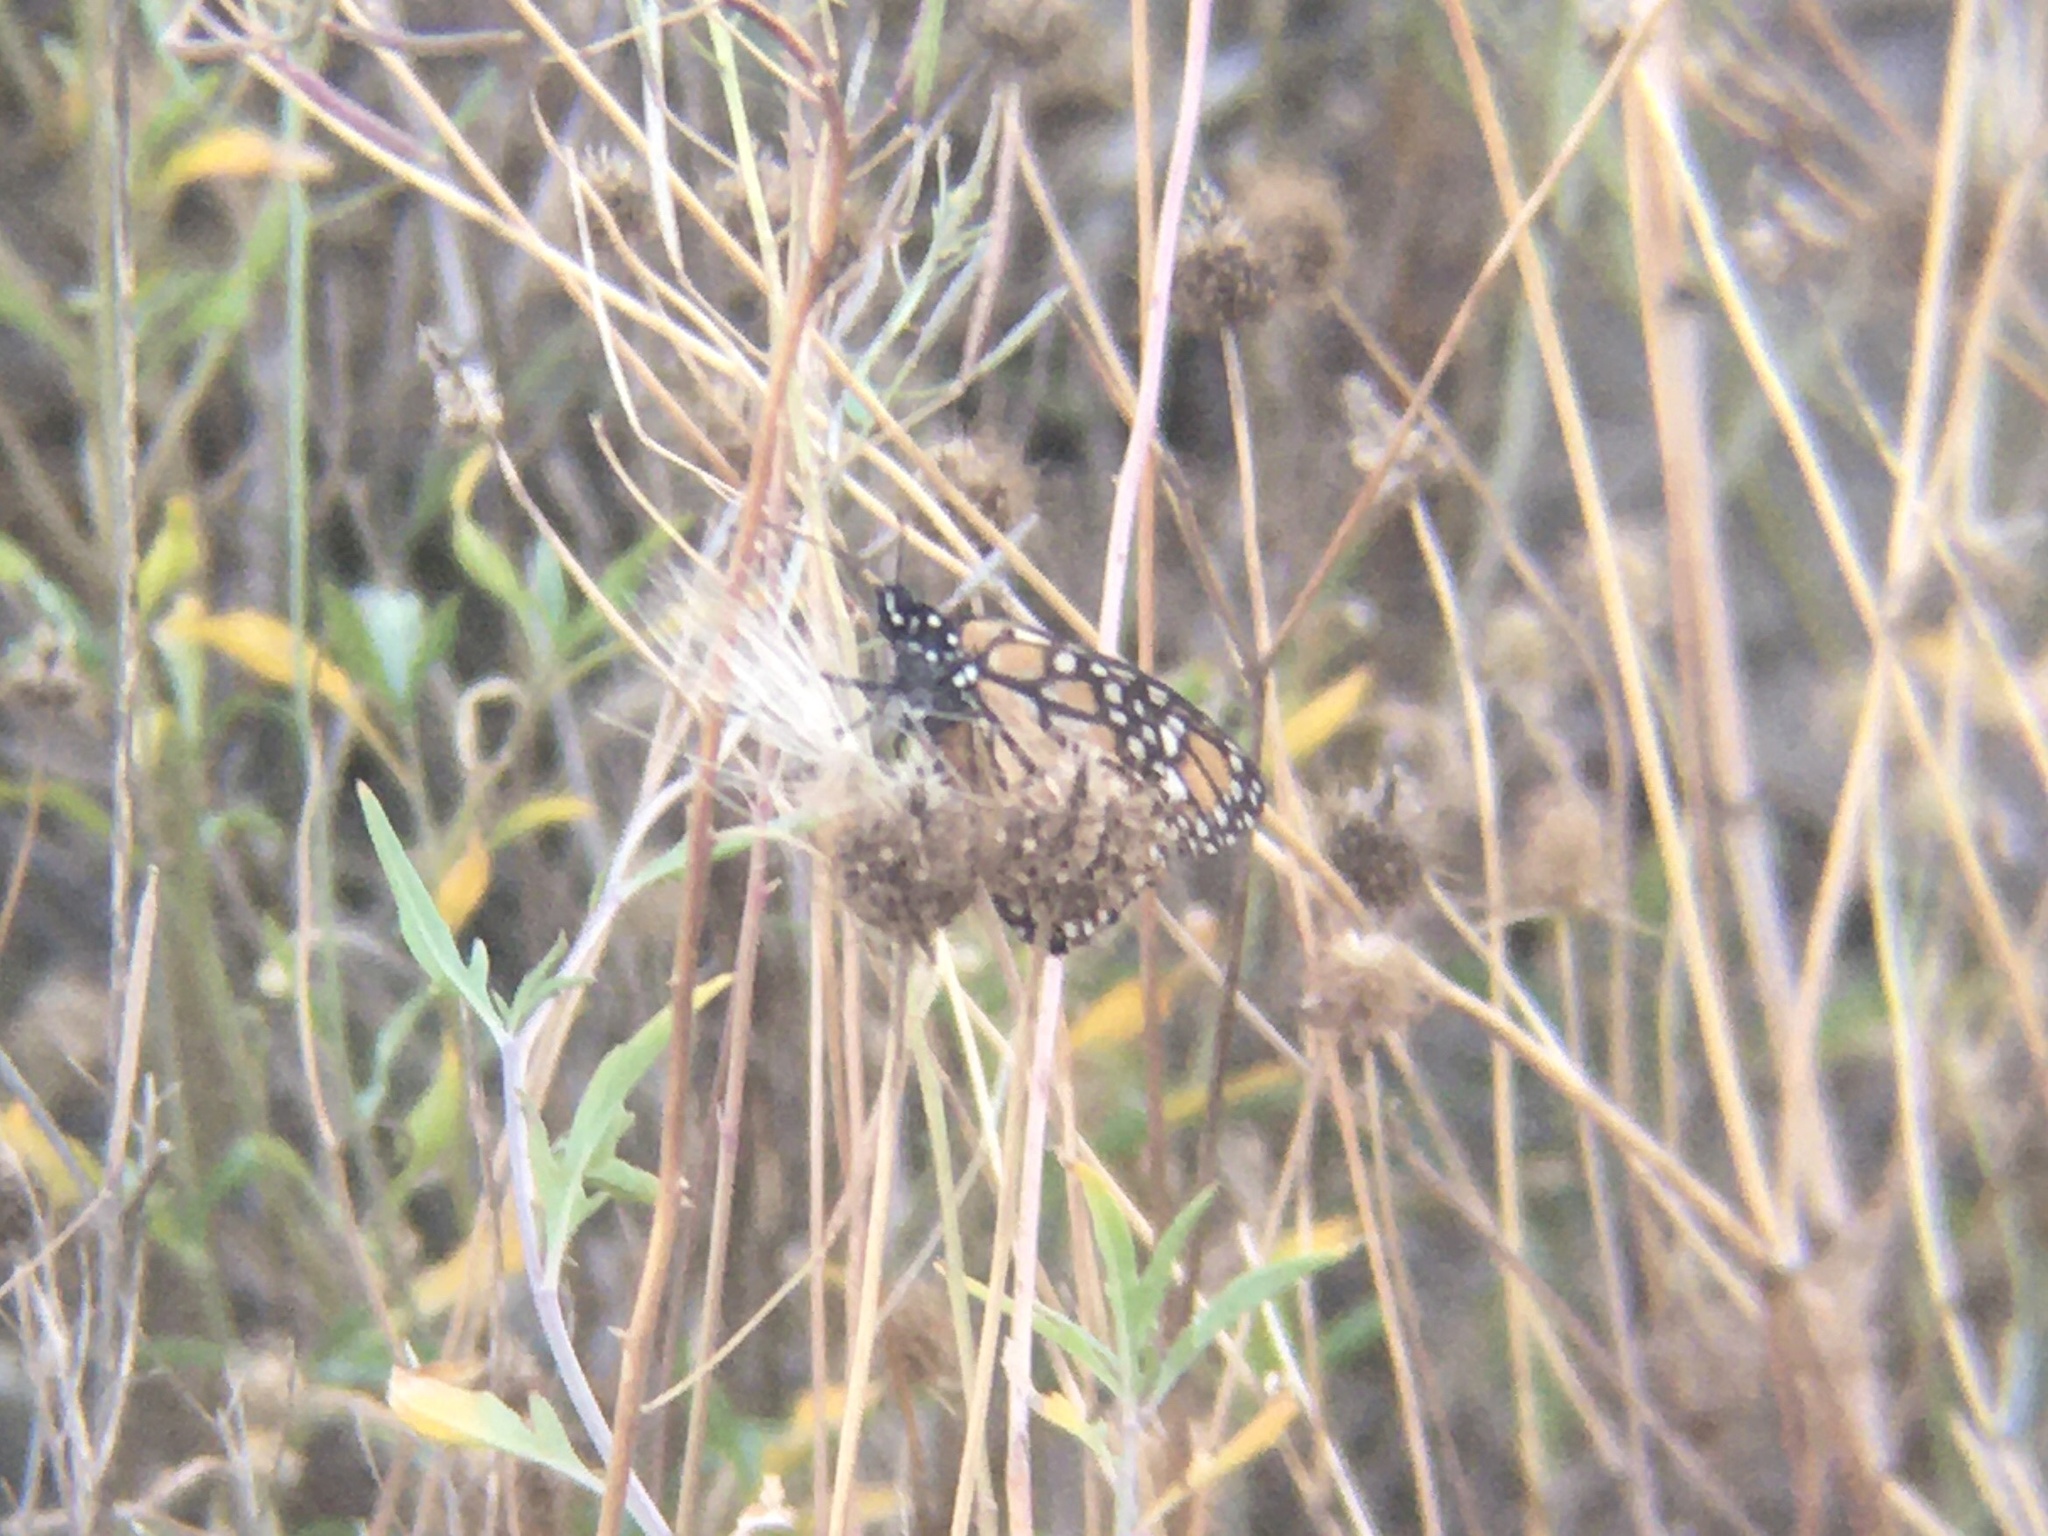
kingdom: Animalia
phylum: Arthropoda
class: Insecta
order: Lepidoptera
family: Nymphalidae
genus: Danaus
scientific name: Danaus erippus
